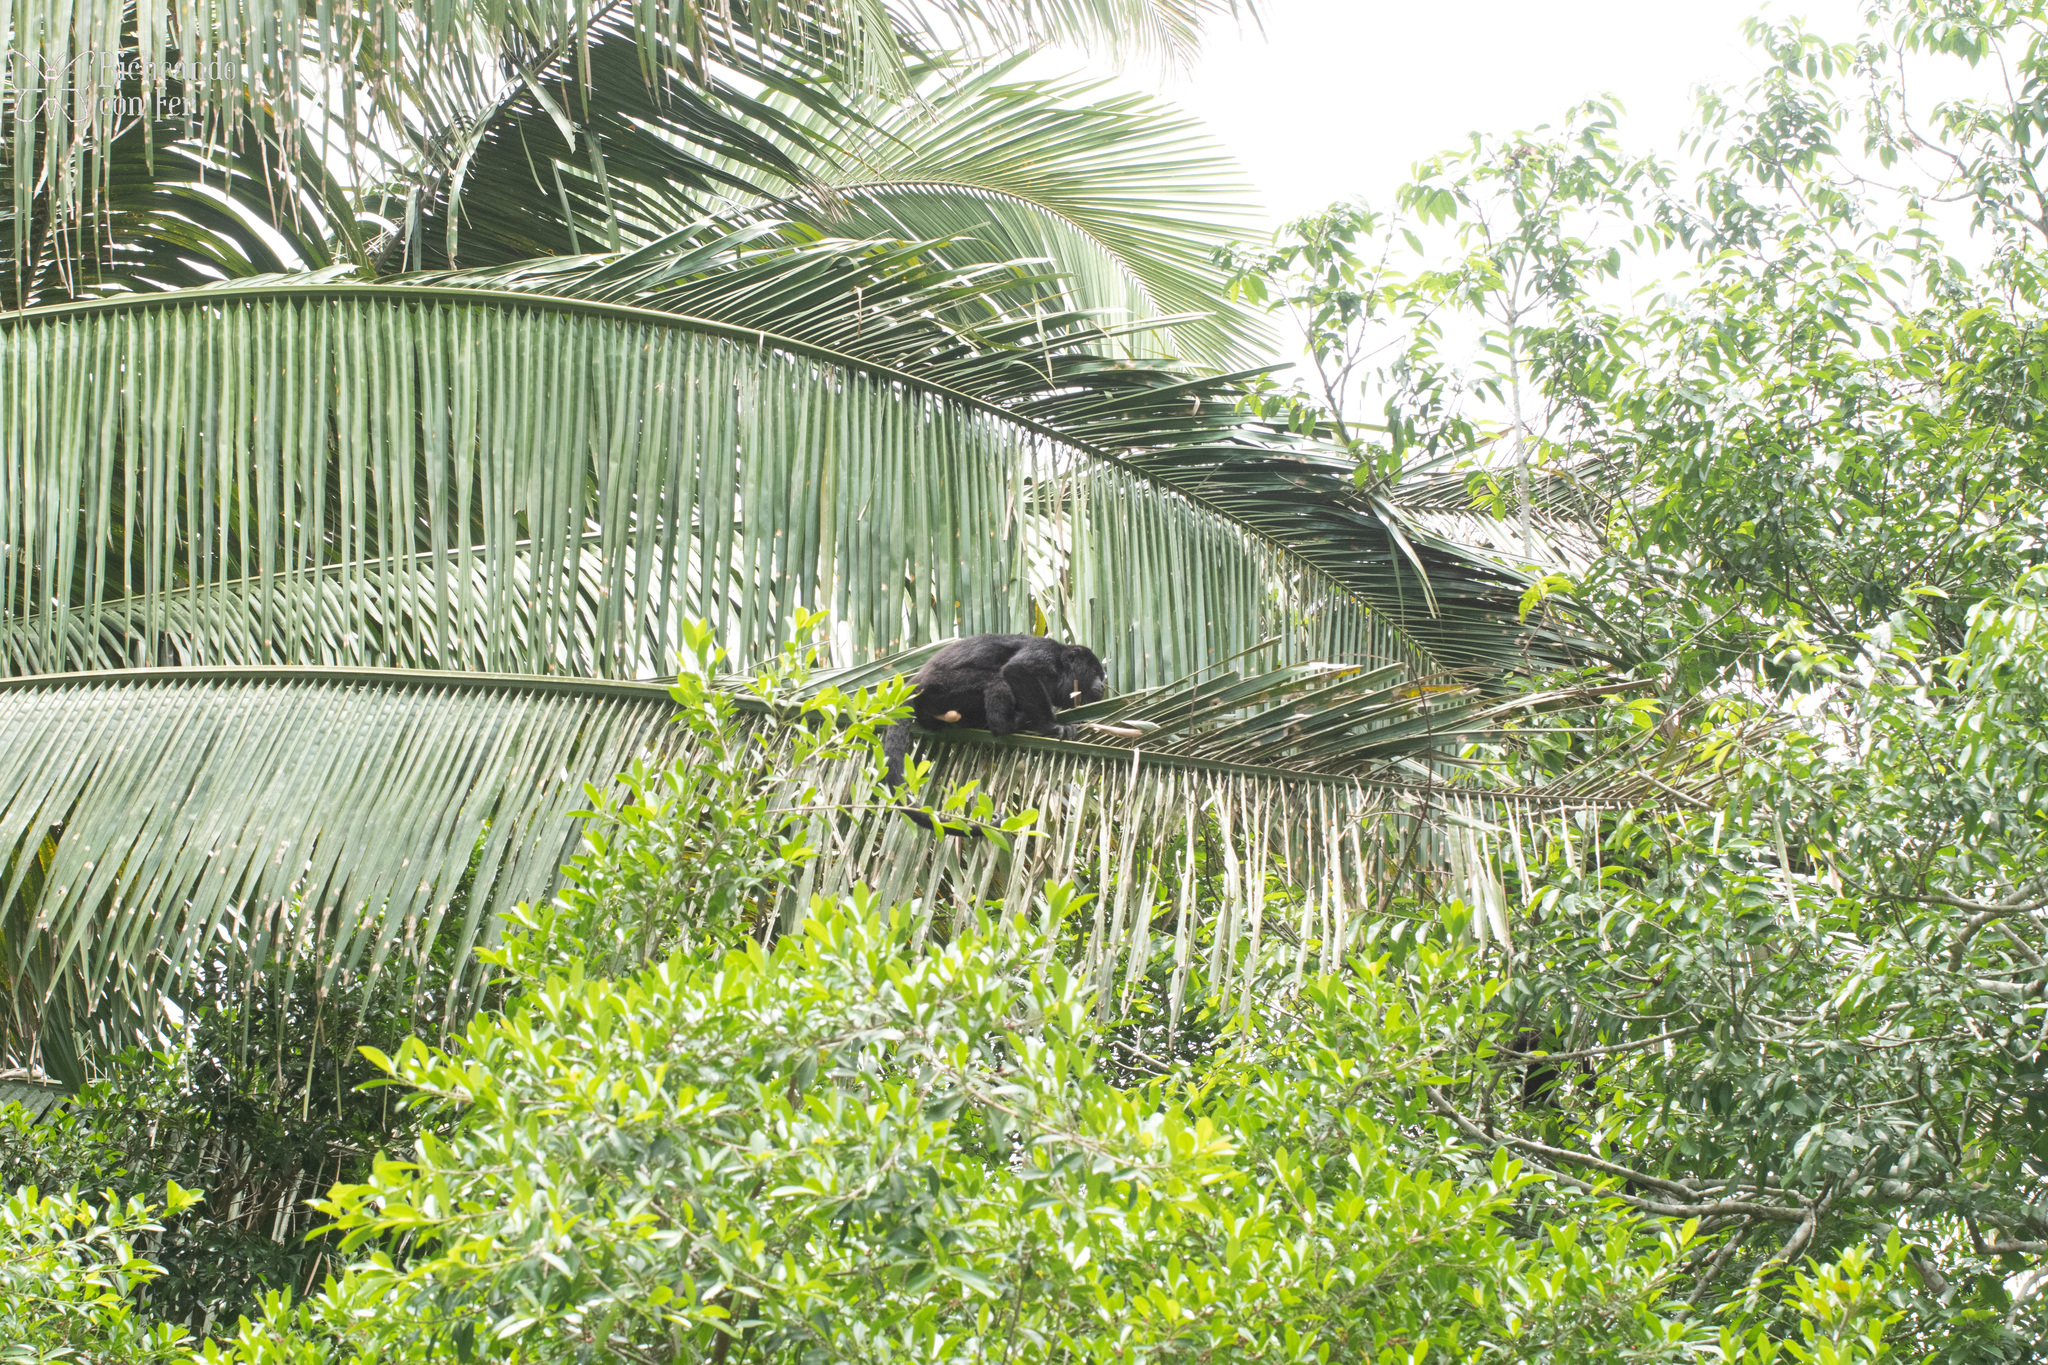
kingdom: Animalia
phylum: Chordata
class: Mammalia
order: Primates
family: Atelidae
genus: Alouatta
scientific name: Alouatta pigra
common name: Guatemalan black howler
